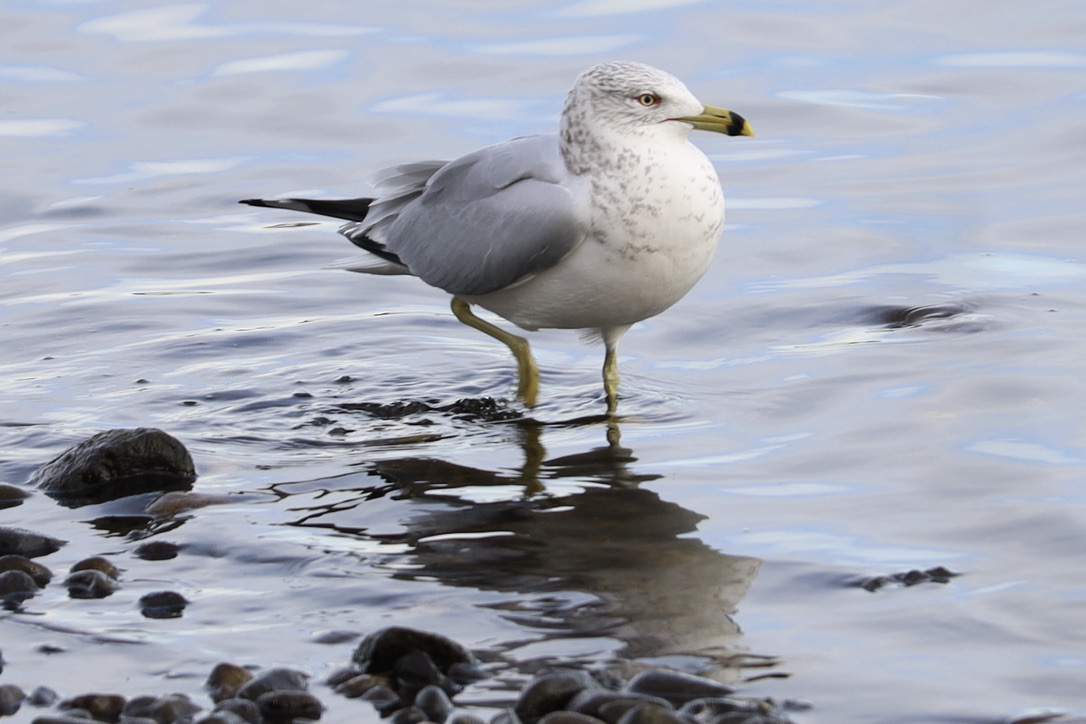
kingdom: Animalia
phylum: Chordata
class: Aves
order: Charadriiformes
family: Laridae
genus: Larus
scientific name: Larus delawarensis
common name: Ring-billed gull
